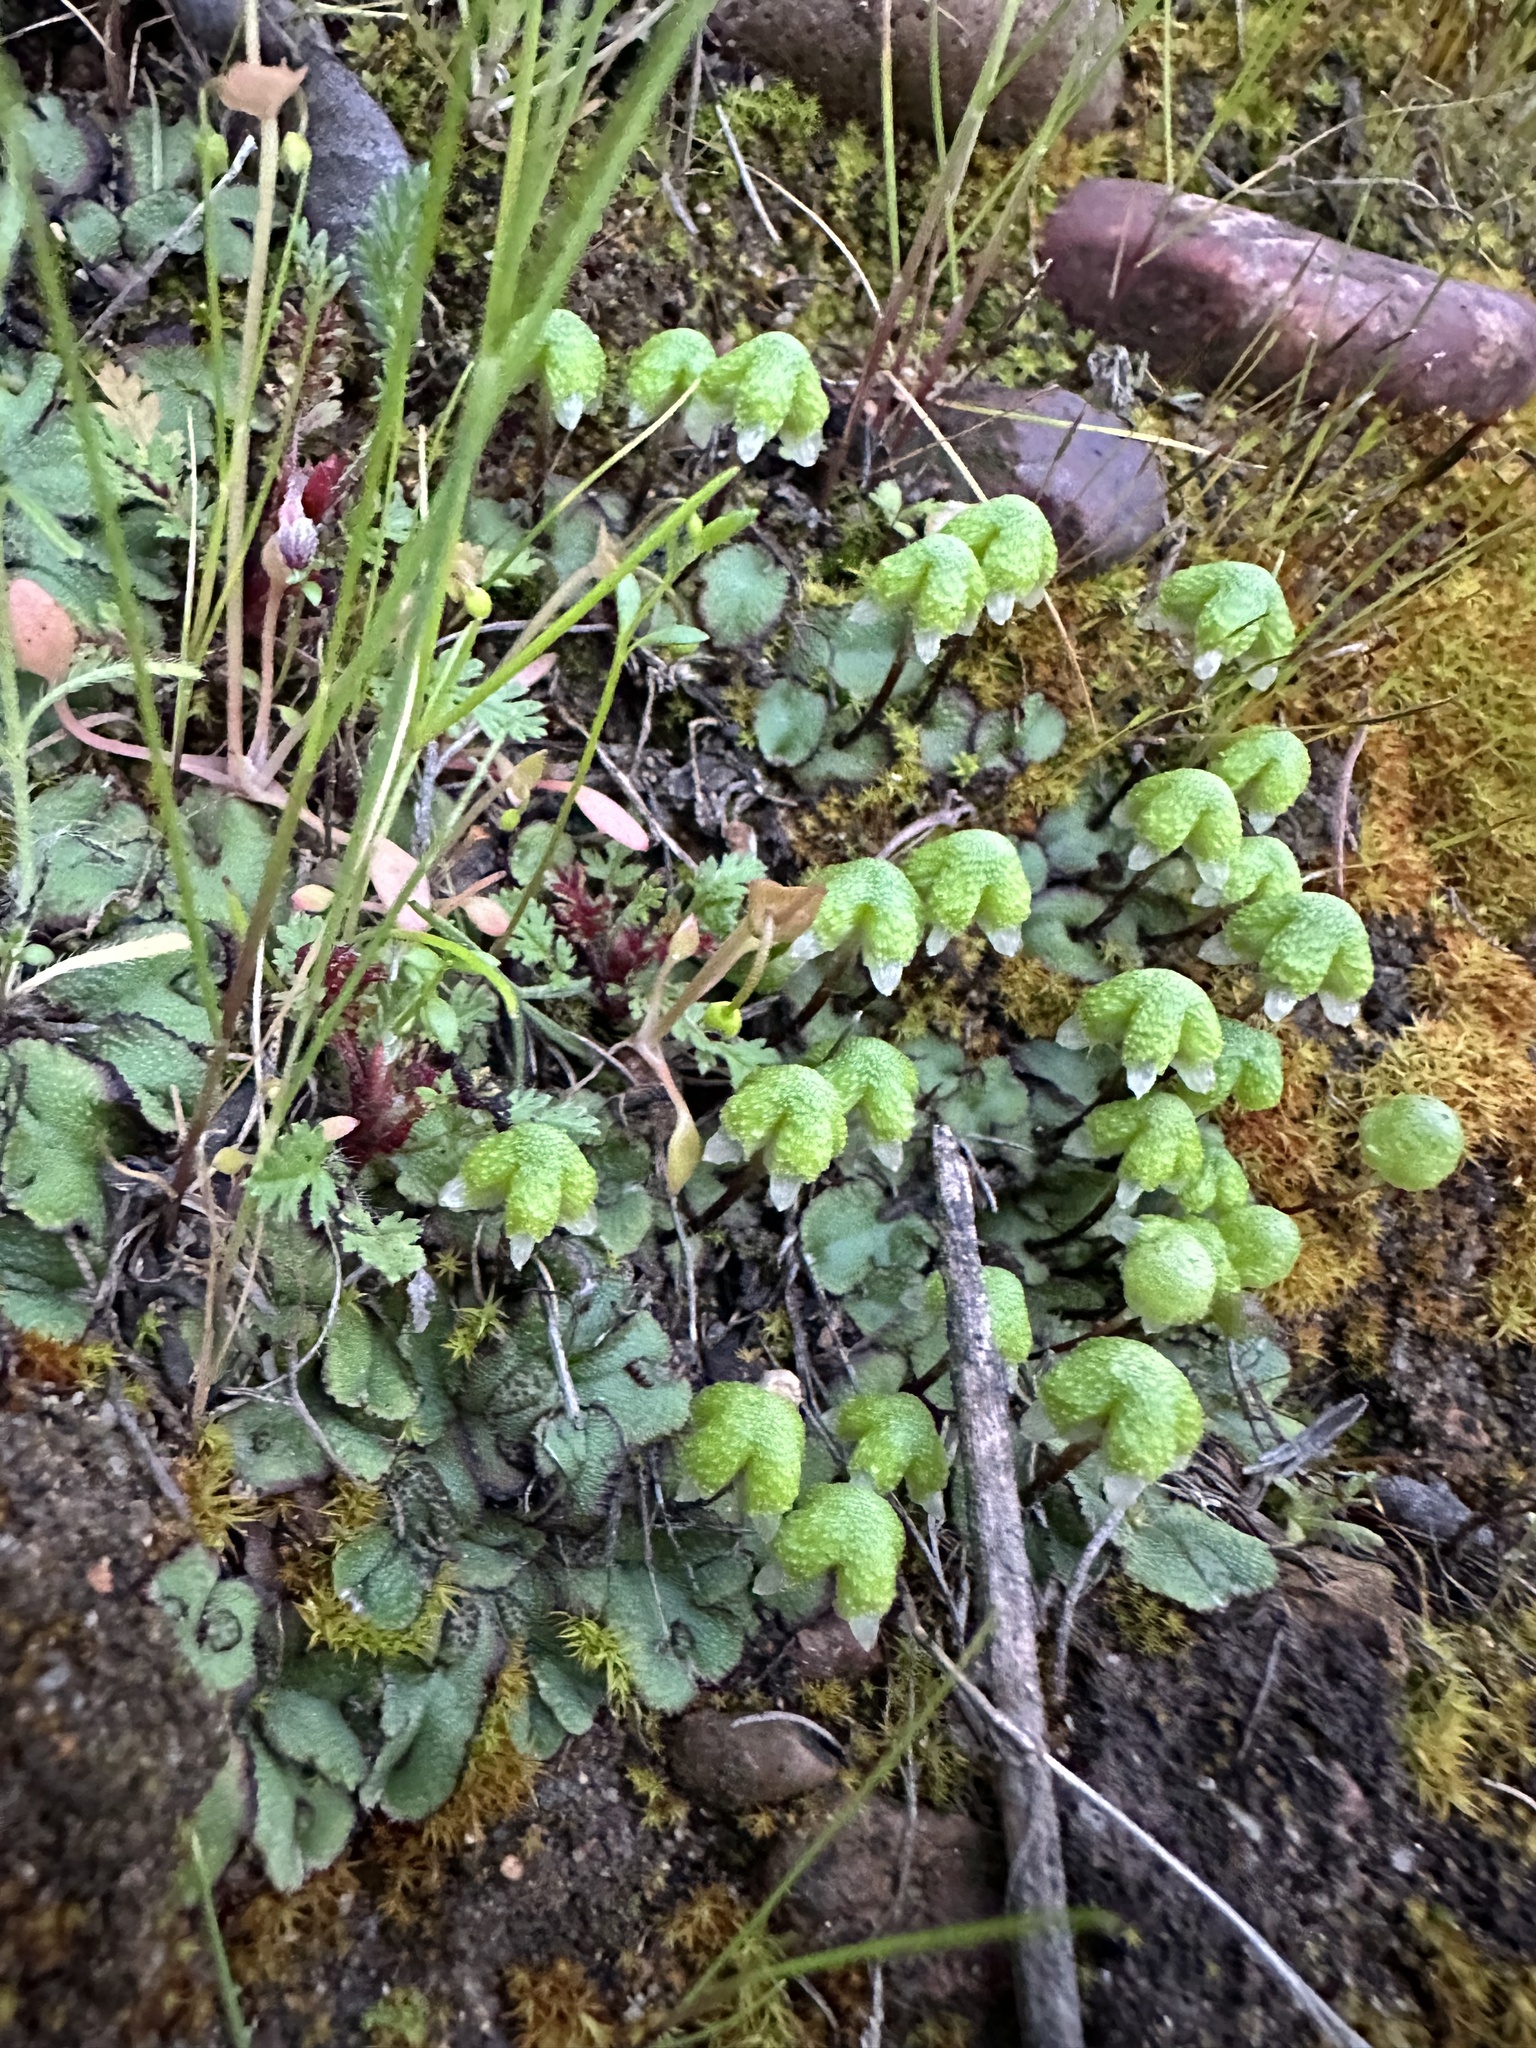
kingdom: Plantae
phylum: Marchantiophyta
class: Marchantiopsida
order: Marchantiales
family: Aytoniaceae
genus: Asterella
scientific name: Asterella californica
